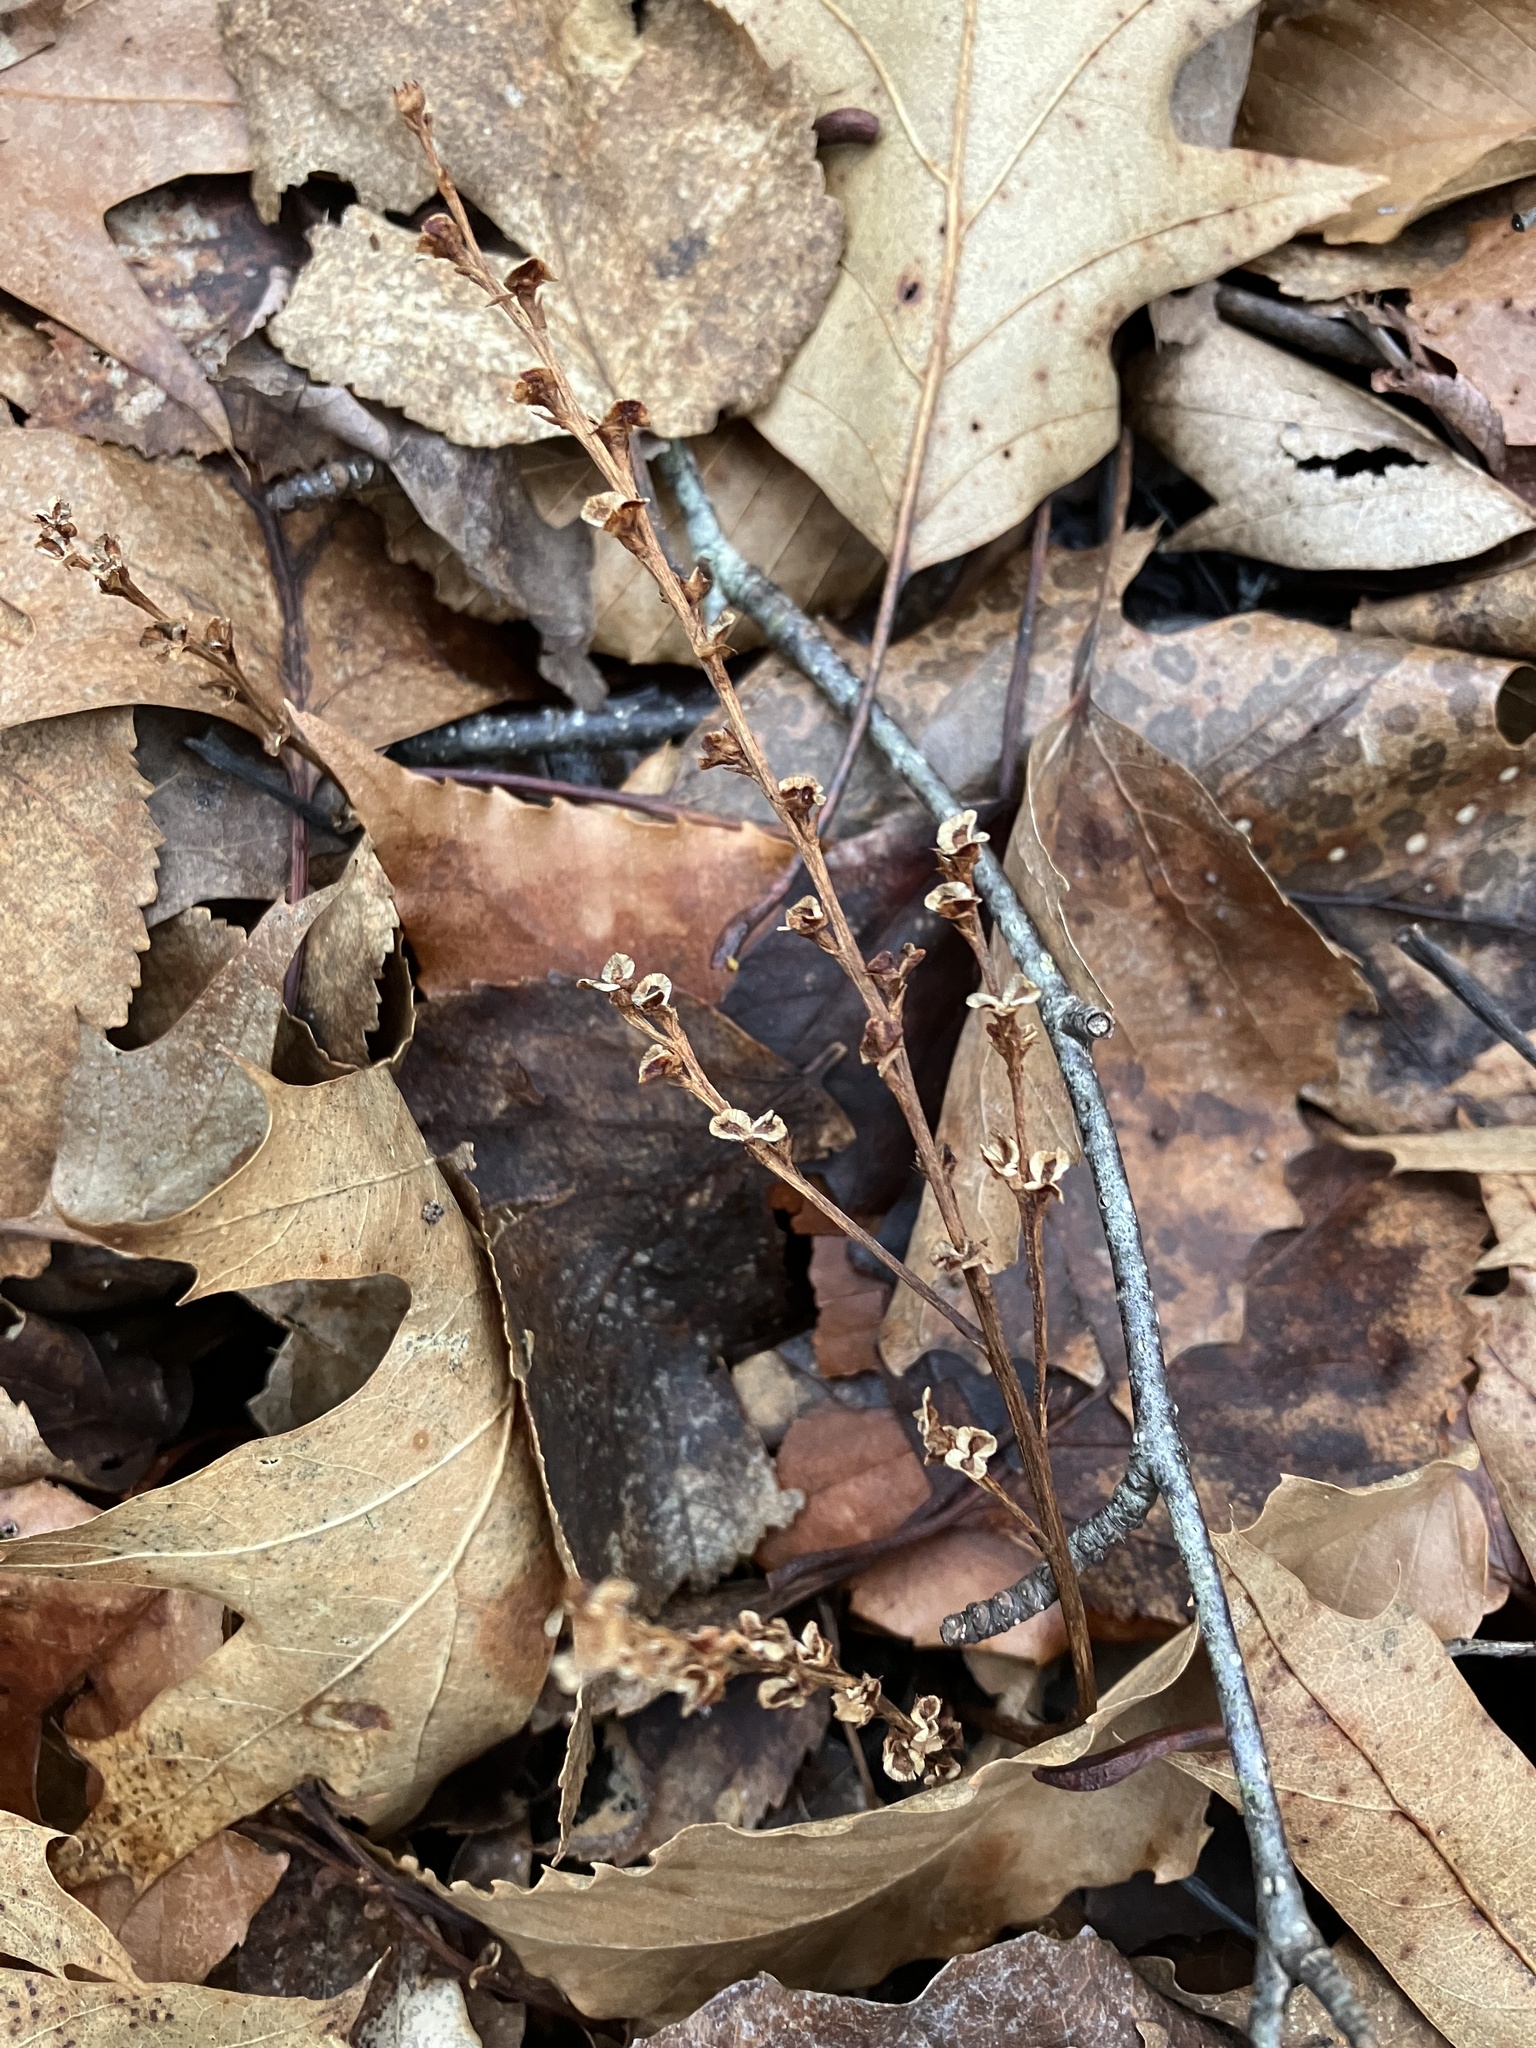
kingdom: Plantae
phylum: Tracheophyta
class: Magnoliopsida
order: Lamiales
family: Orobanchaceae
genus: Epifagus
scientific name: Epifagus virginiana
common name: Beechdrops
